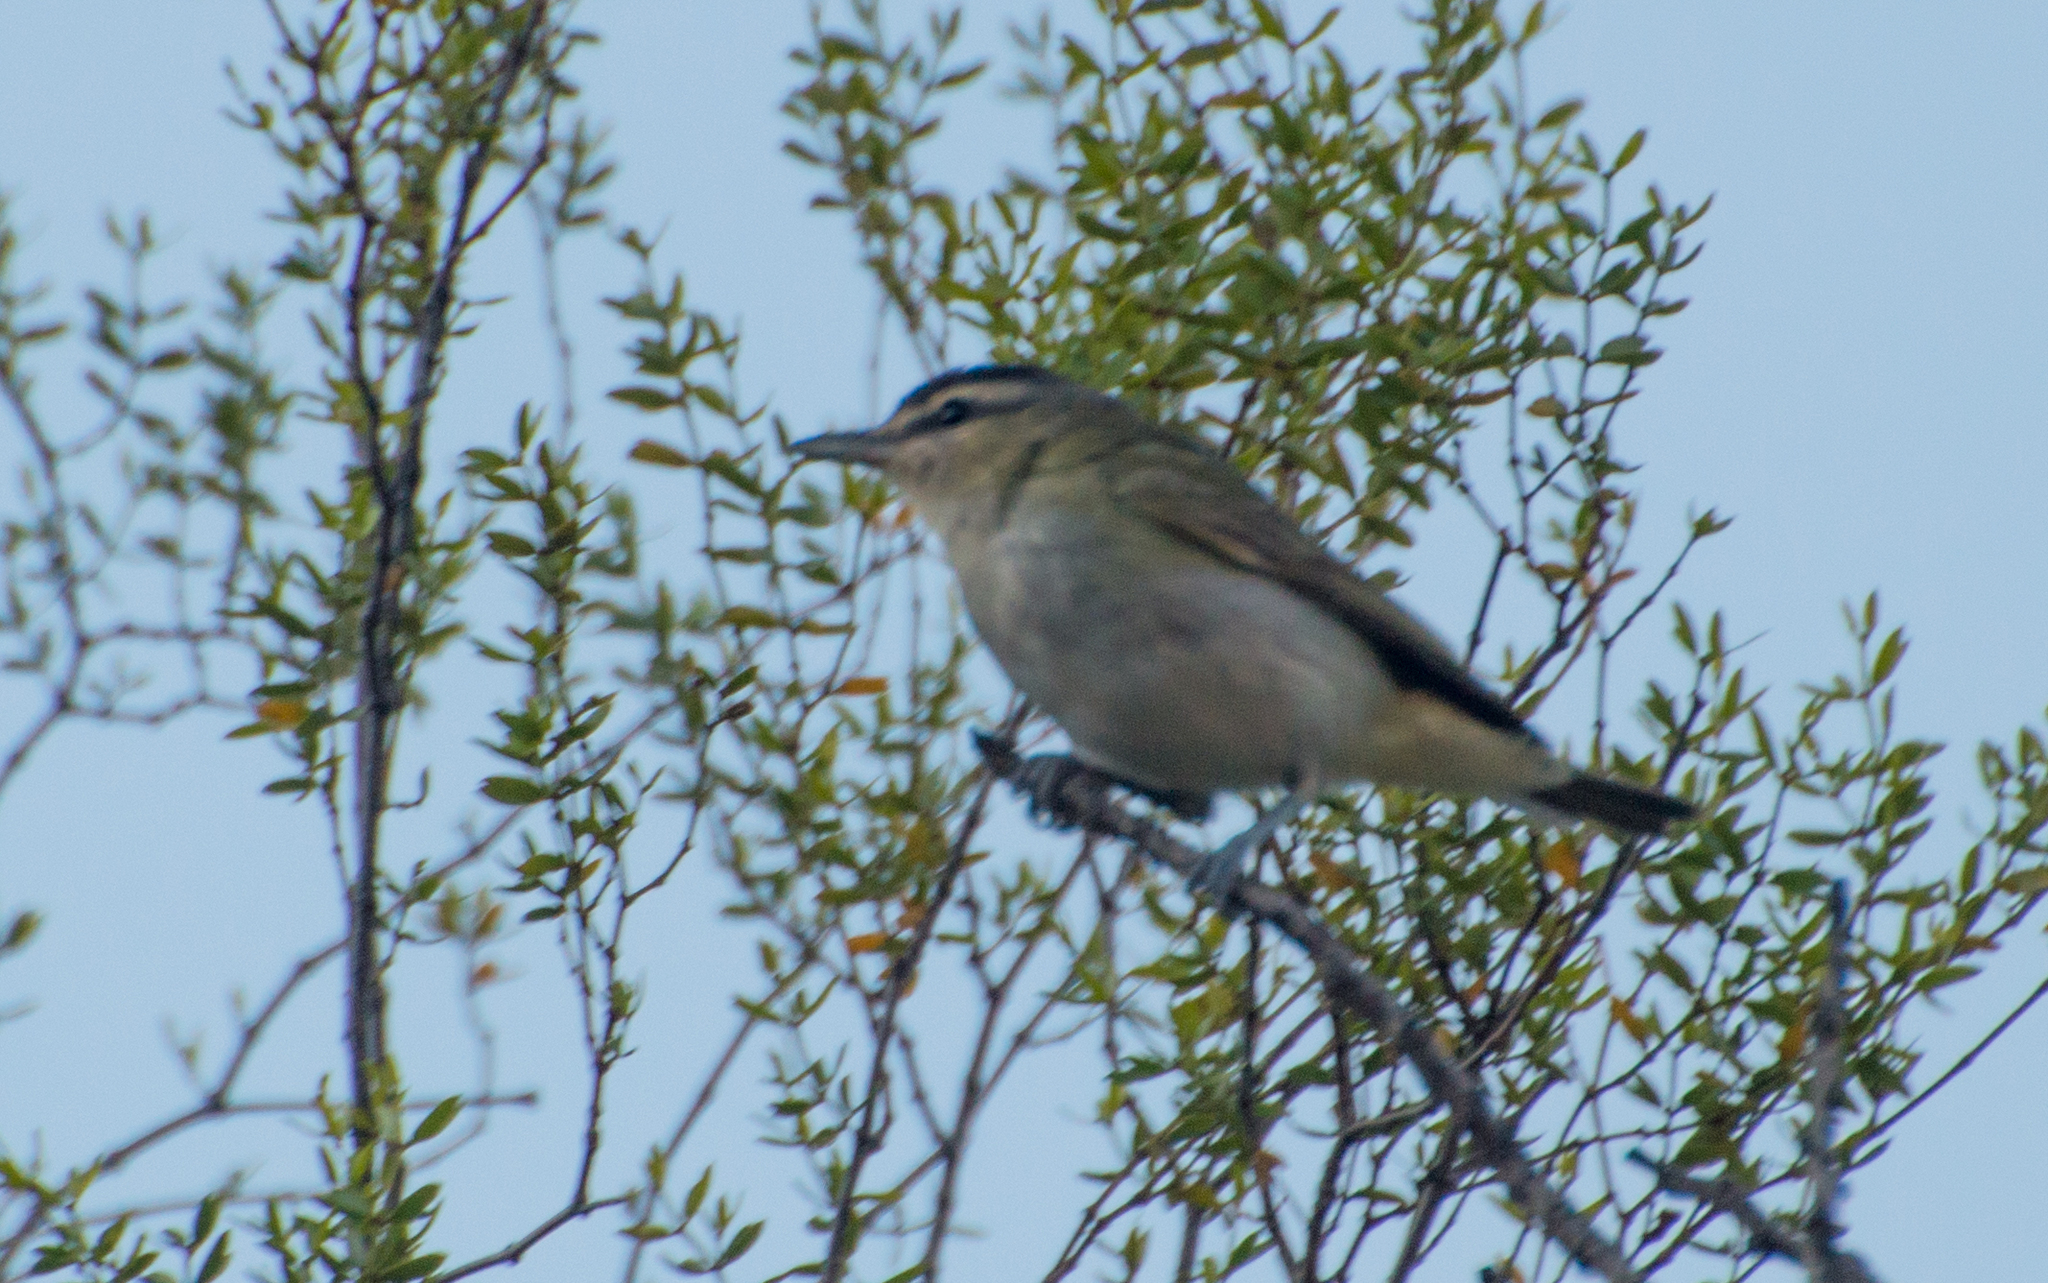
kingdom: Animalia
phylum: Chordata
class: Aves
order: Passeriformes
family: Vireonidae
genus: Vireo
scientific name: Vireo olivaceus
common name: Red-eyed vireo
